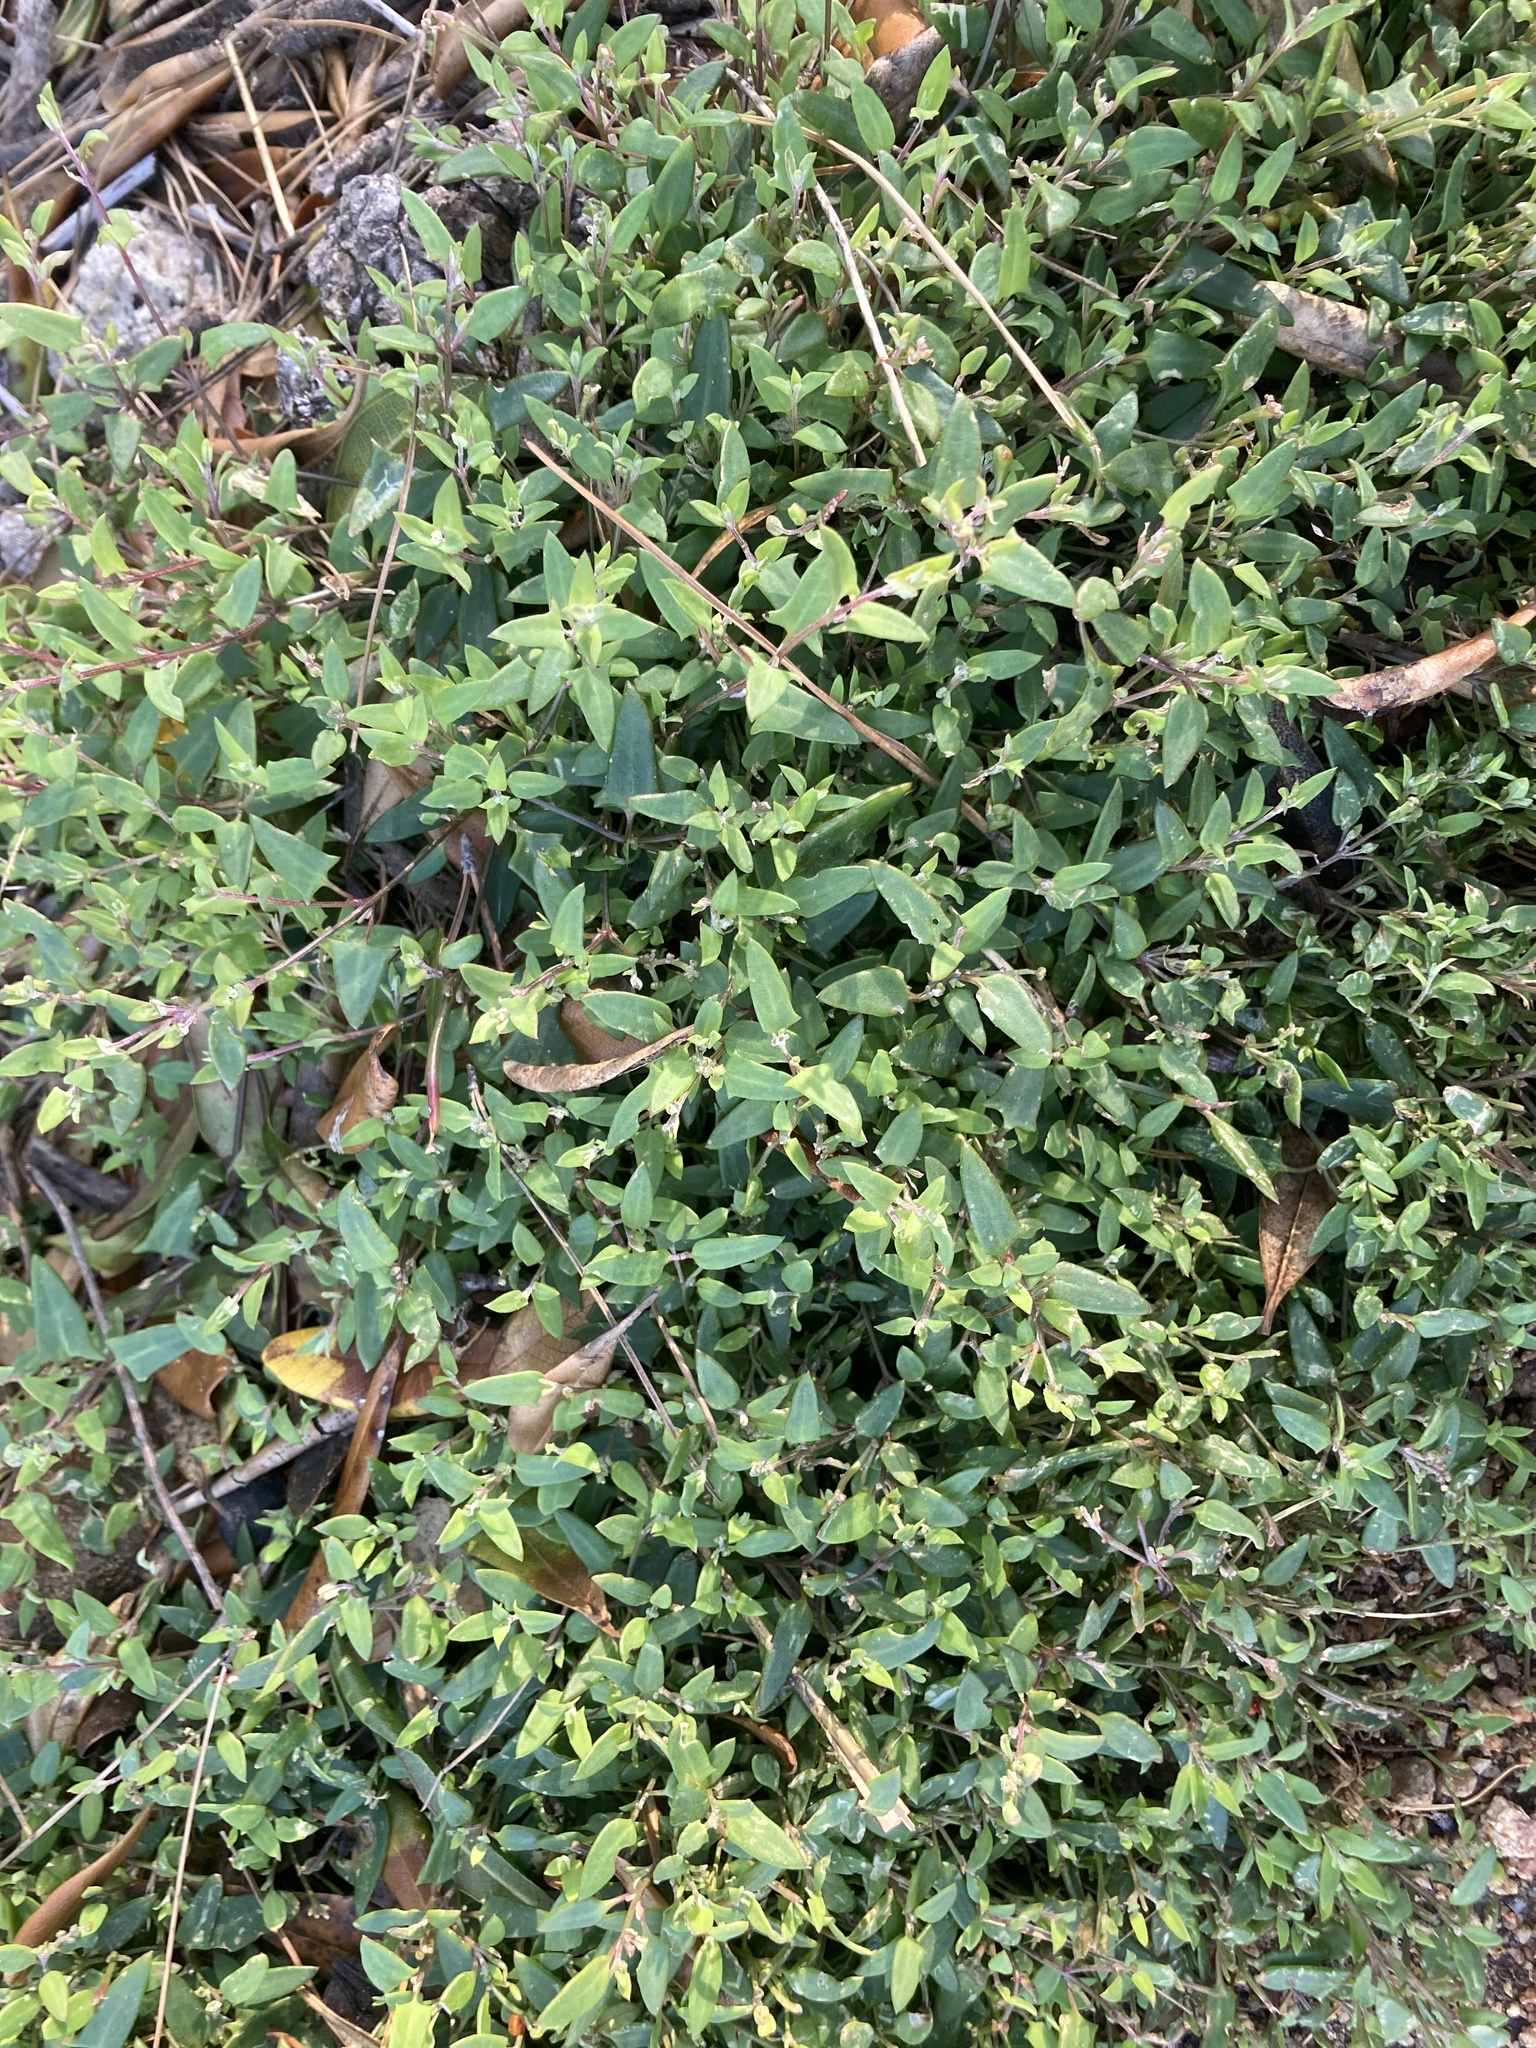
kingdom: Plantae
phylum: Tracheophyta
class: Magnoliopsida
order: Caryophyllales
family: Amaranthaceae
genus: Chenopodium
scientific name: Chenopodium nutans
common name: Climbing-saltbush
